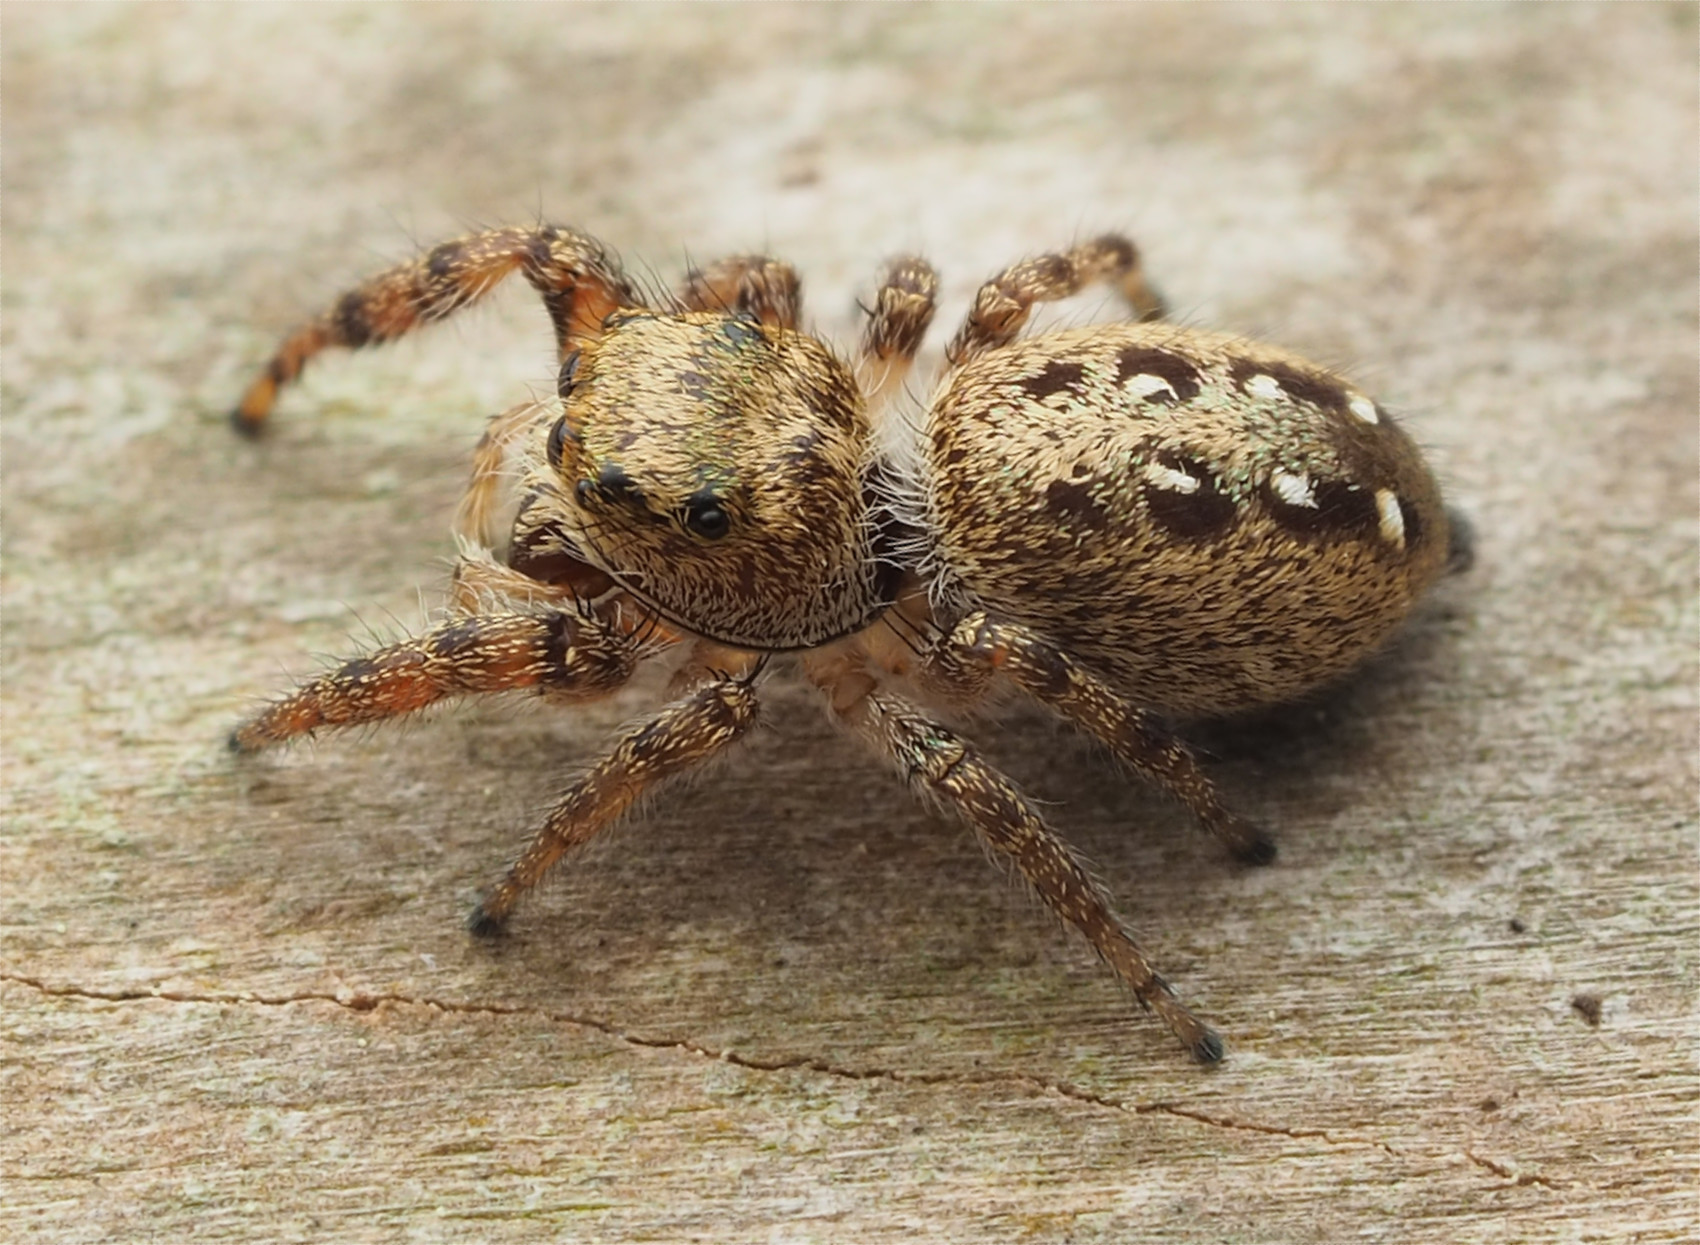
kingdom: Animalia
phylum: Arthropoda
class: Arachnida
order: Araneae
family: Salticidae
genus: Eris
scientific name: Eris flava
